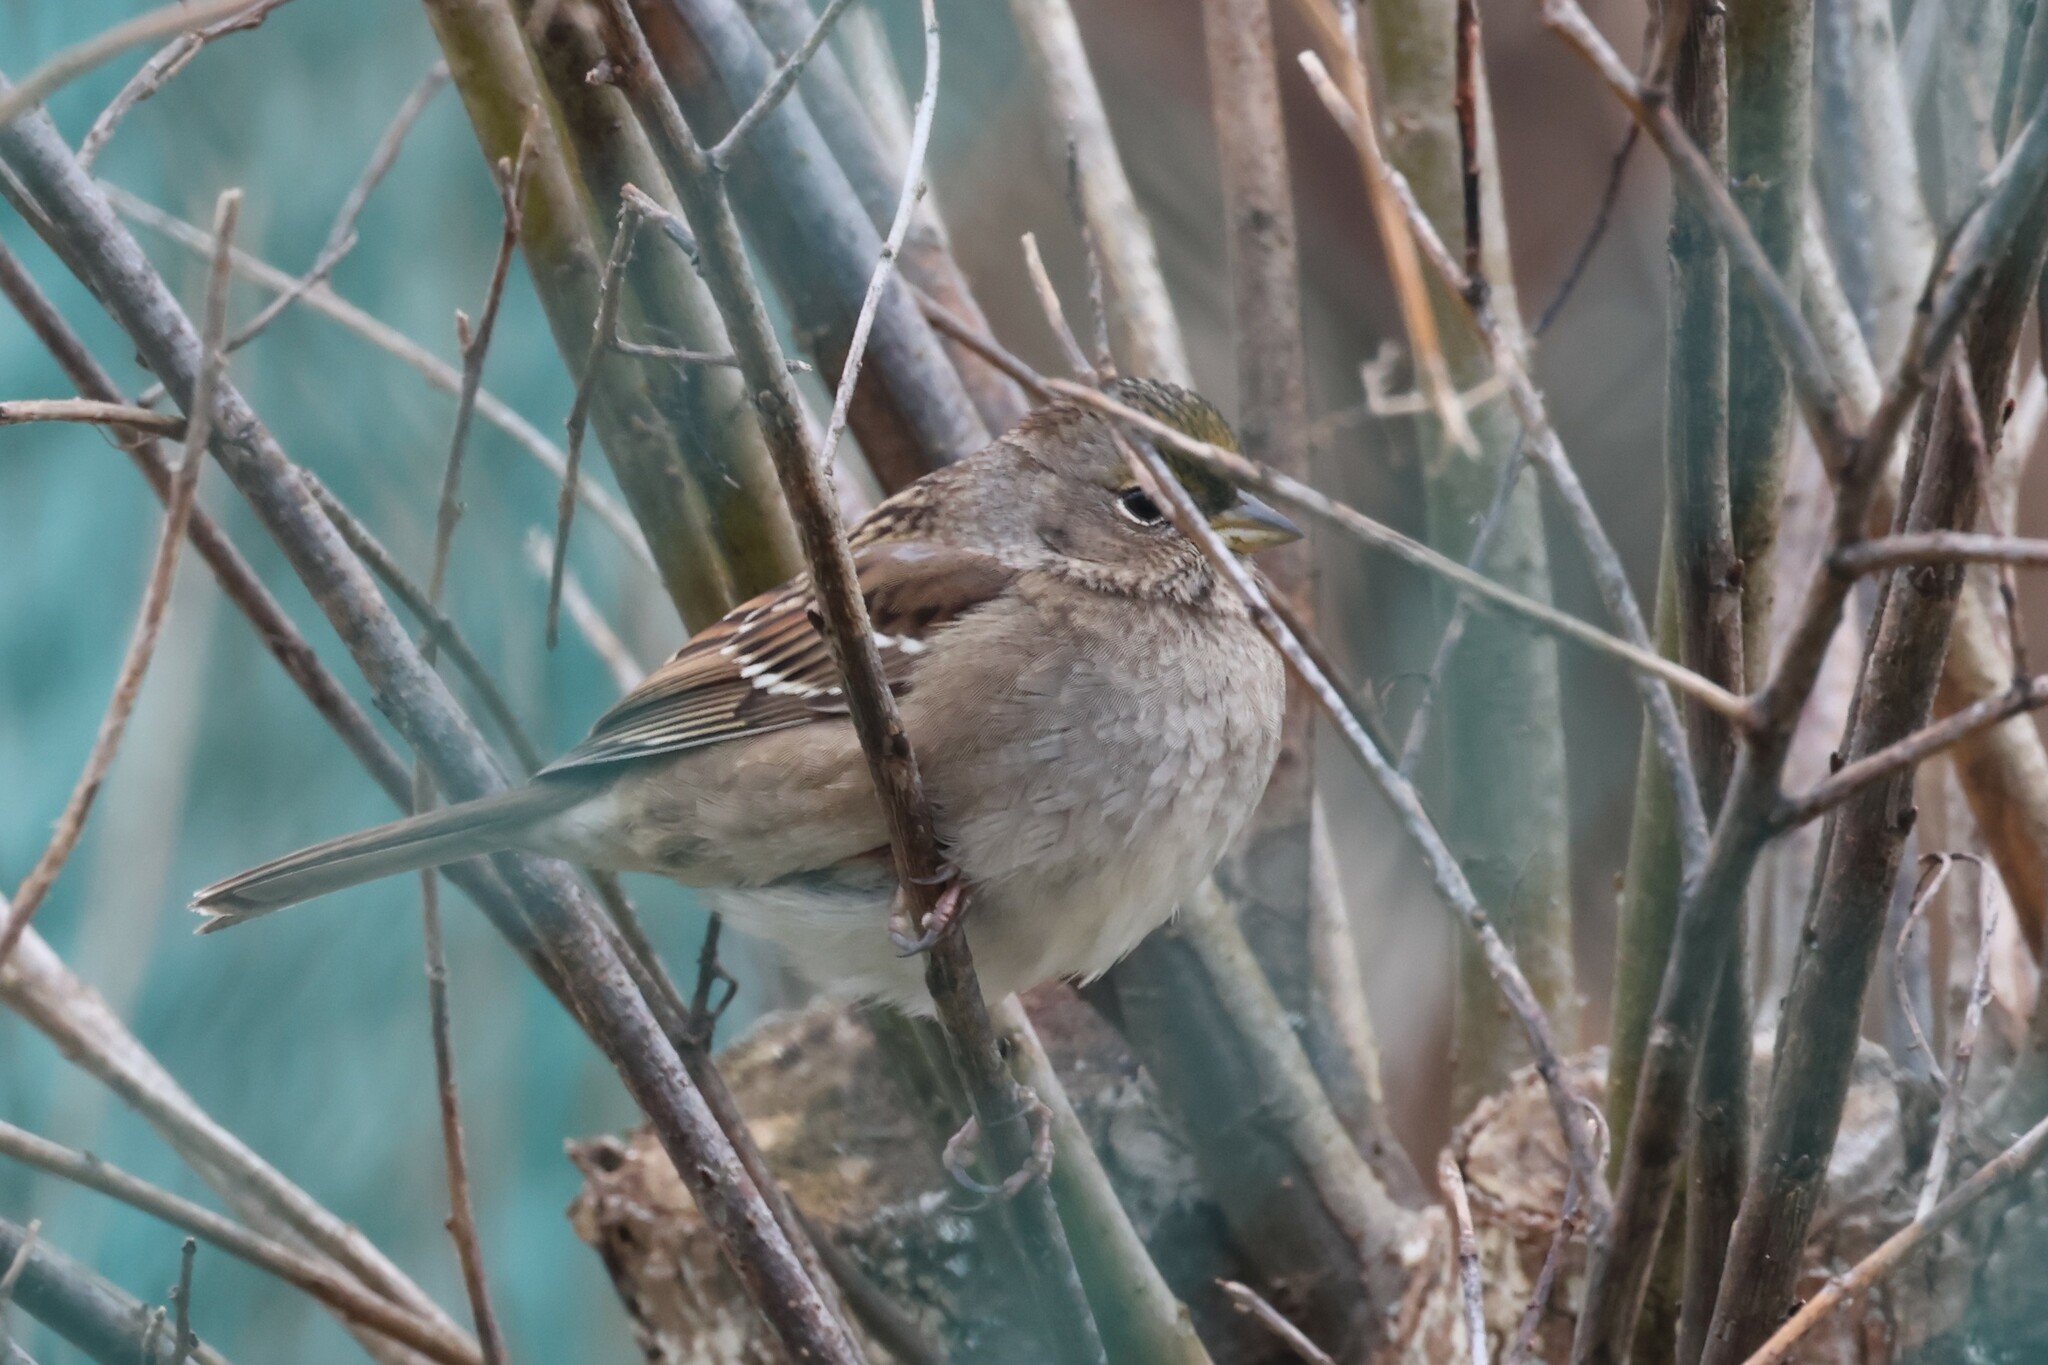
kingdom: Animalia
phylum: Chordata
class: Aves
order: Passeriformes
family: Passerellidae
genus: Zonotrichia
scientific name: Zonotrichia atricapilla
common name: Golden-crowned sparrow
